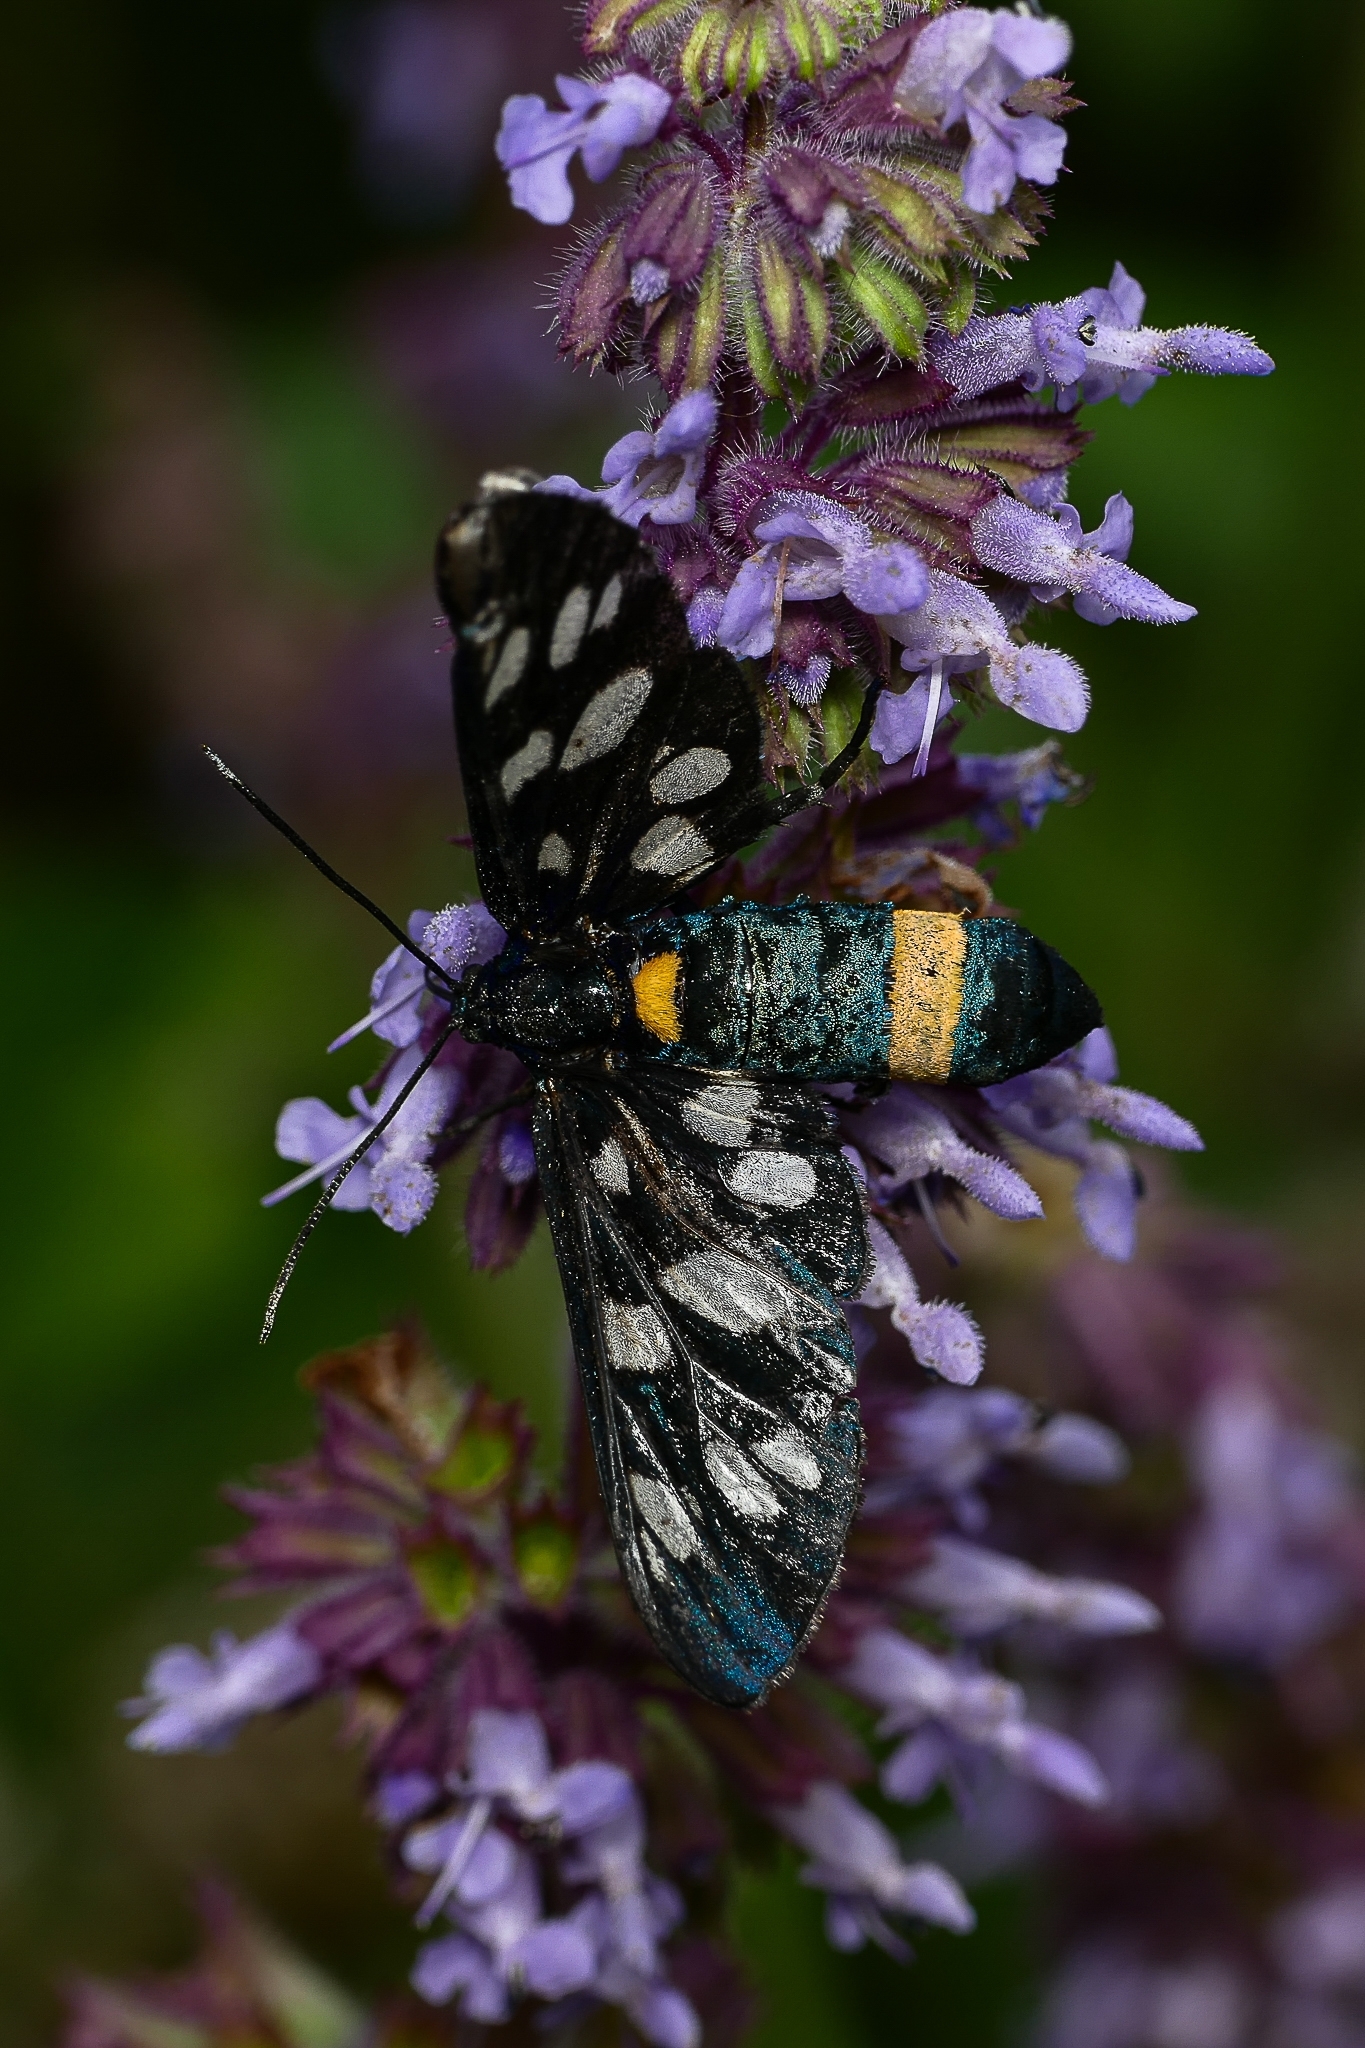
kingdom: Animalia
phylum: Arthropoda
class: Insecta
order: Lepidoptera
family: Erebidae
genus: Amata
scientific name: Amata phegea
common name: Nine-spotted
